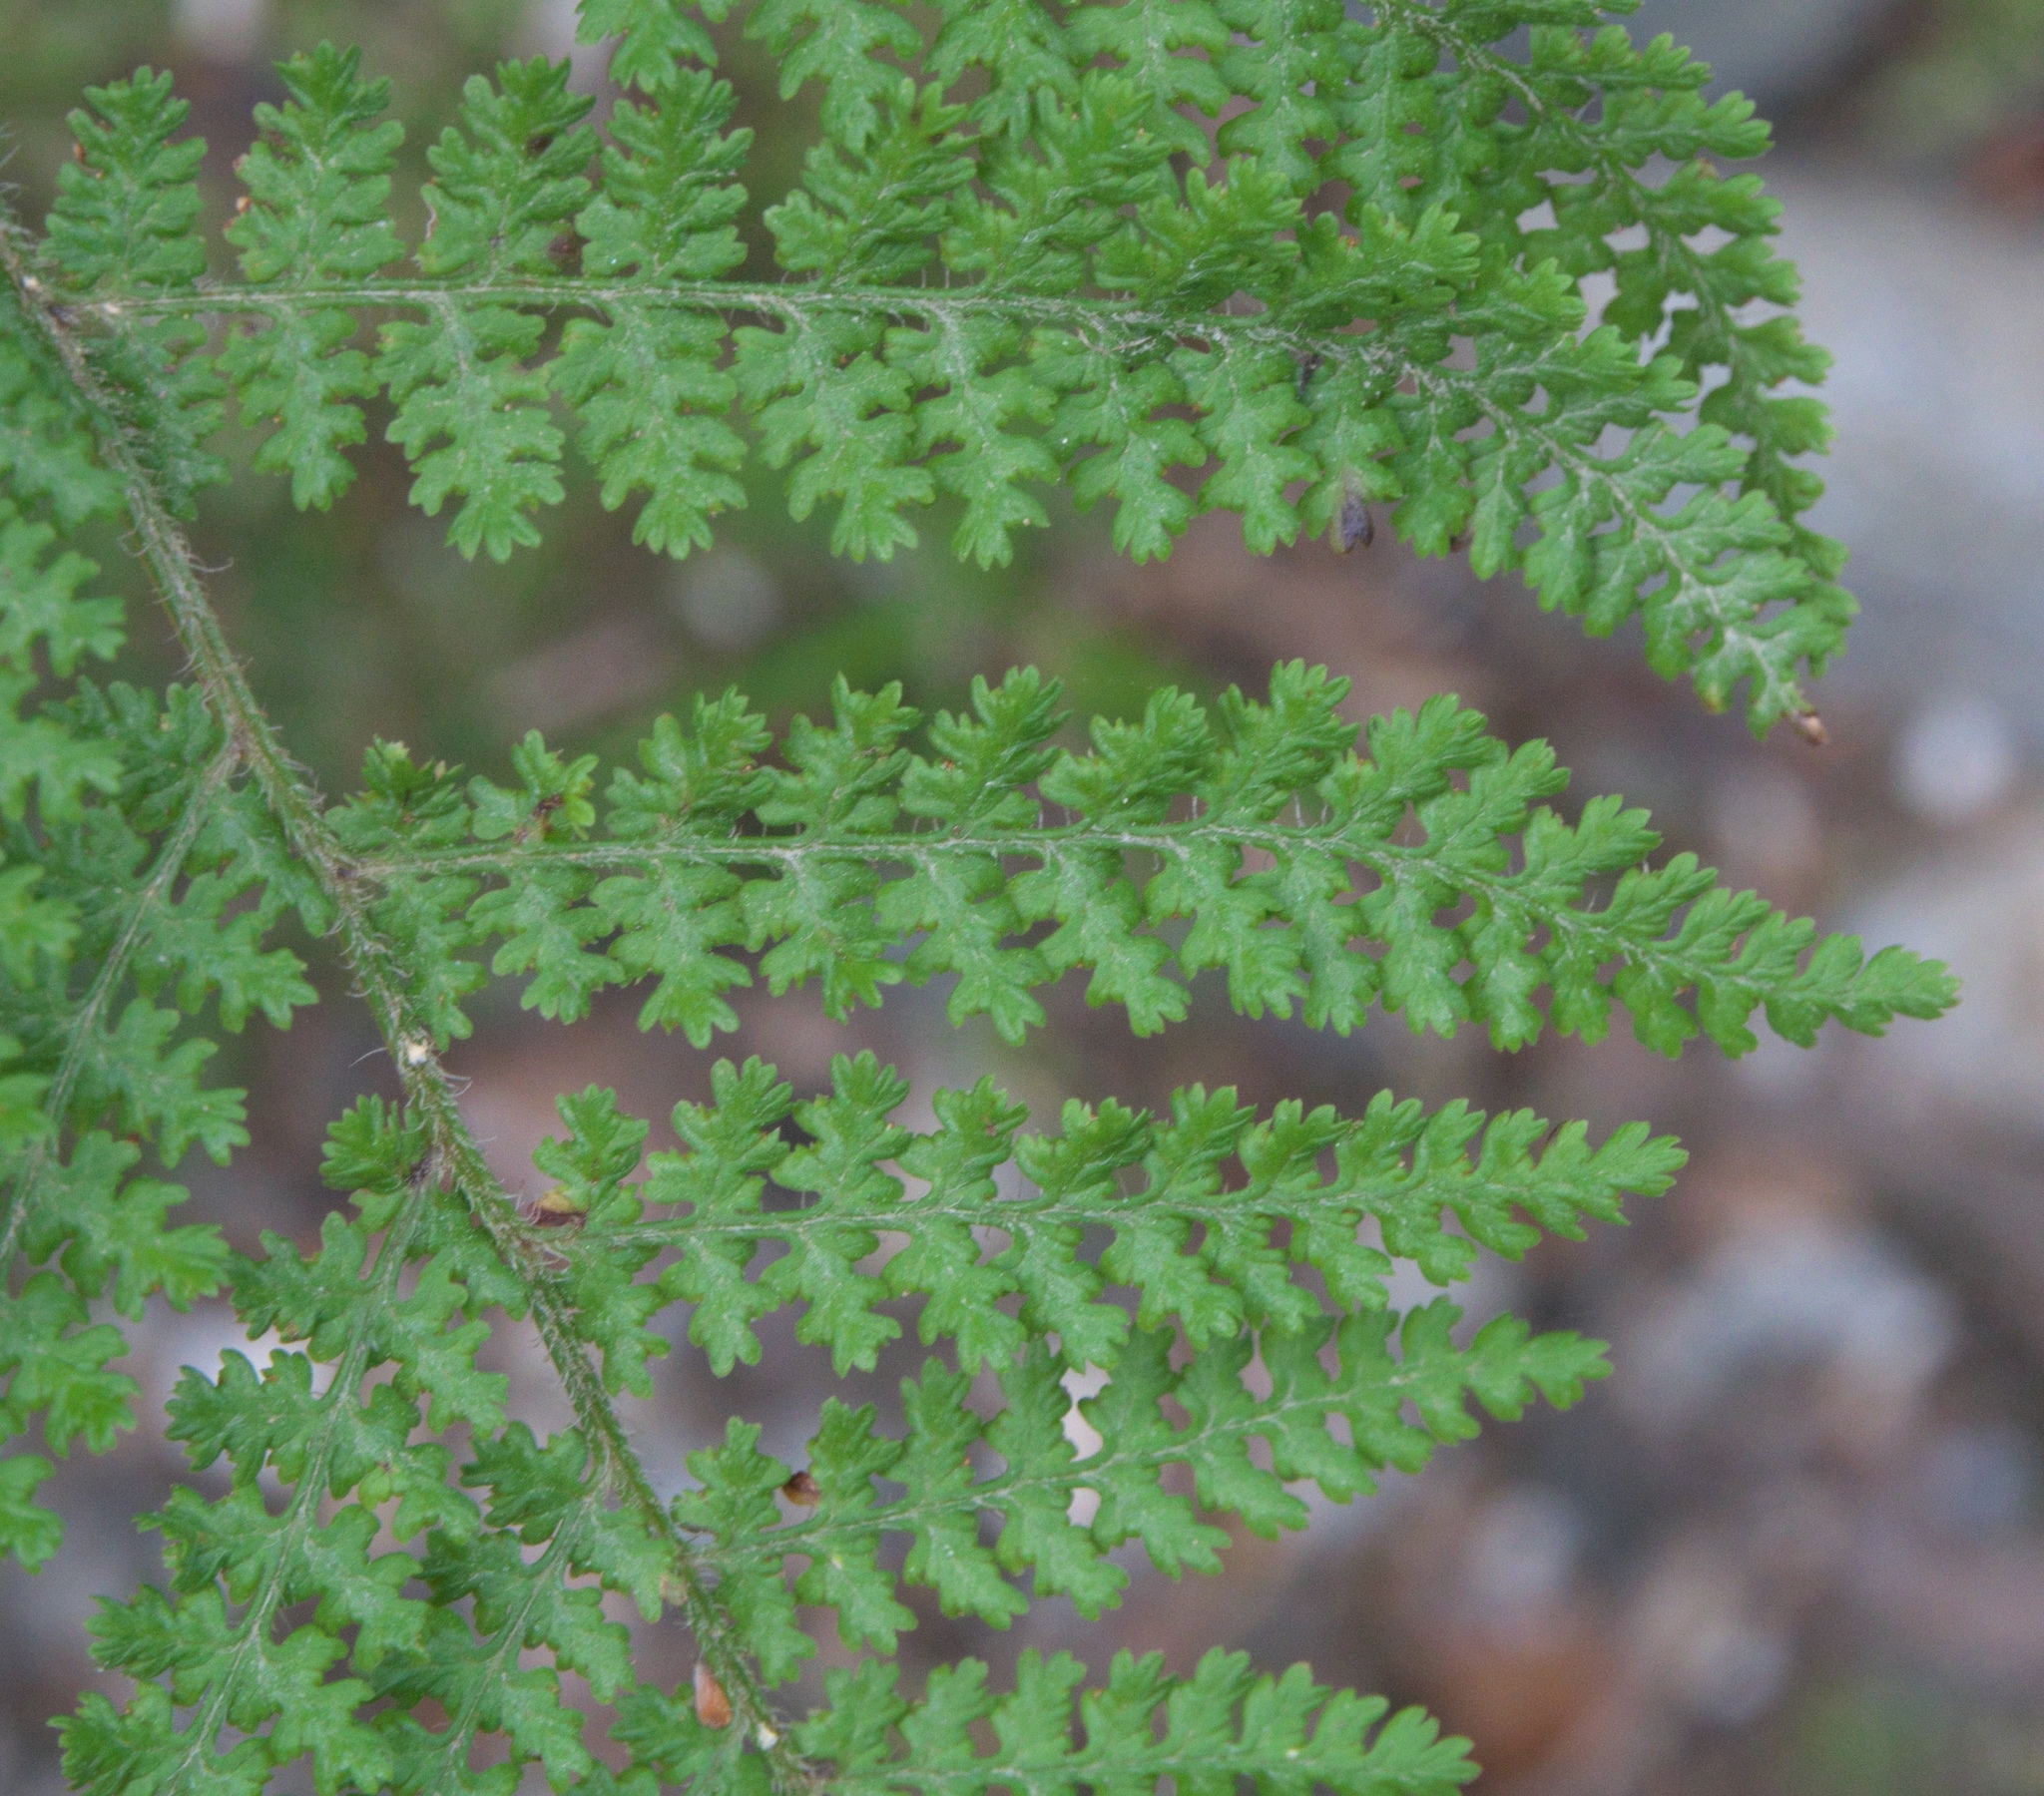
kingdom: Plantae
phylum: Tracheophyta
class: Polypodiopsida
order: Polypodiales
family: Dennstaedtiaceae
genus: Hypolepis
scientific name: Hypolepis millefolium
